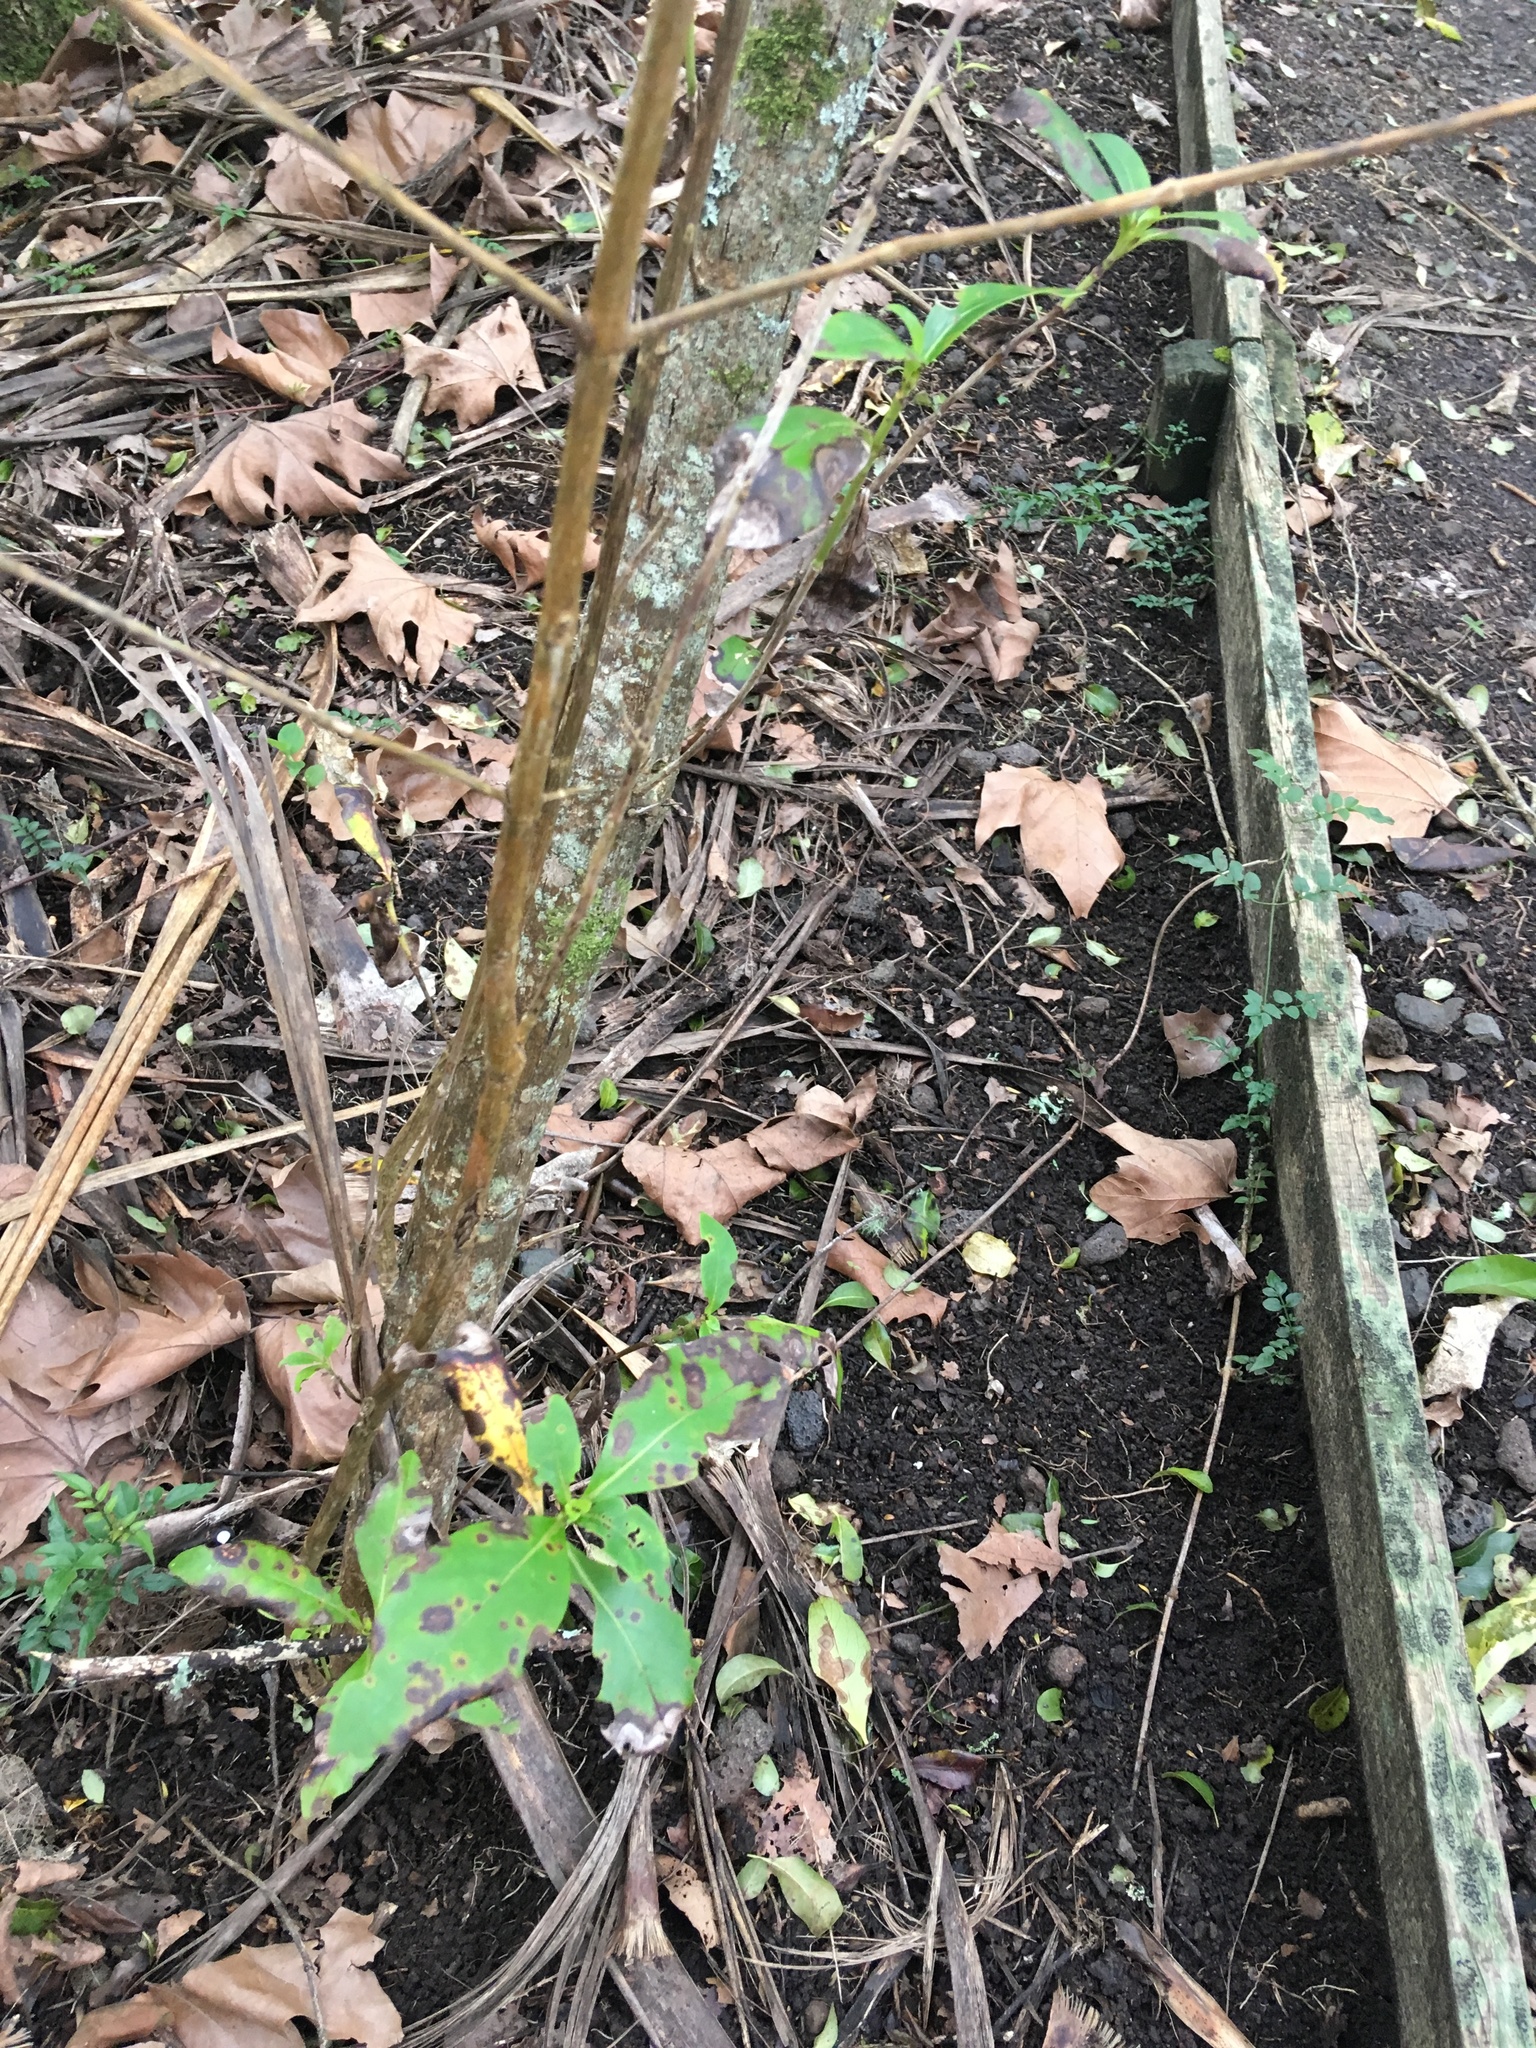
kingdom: Plantae
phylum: Tracheophyta
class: Magnoliopsida
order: Lamiales
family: Oleaceae
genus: Jasminum
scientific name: Jasminum polyanthum
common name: Pink jasmine
